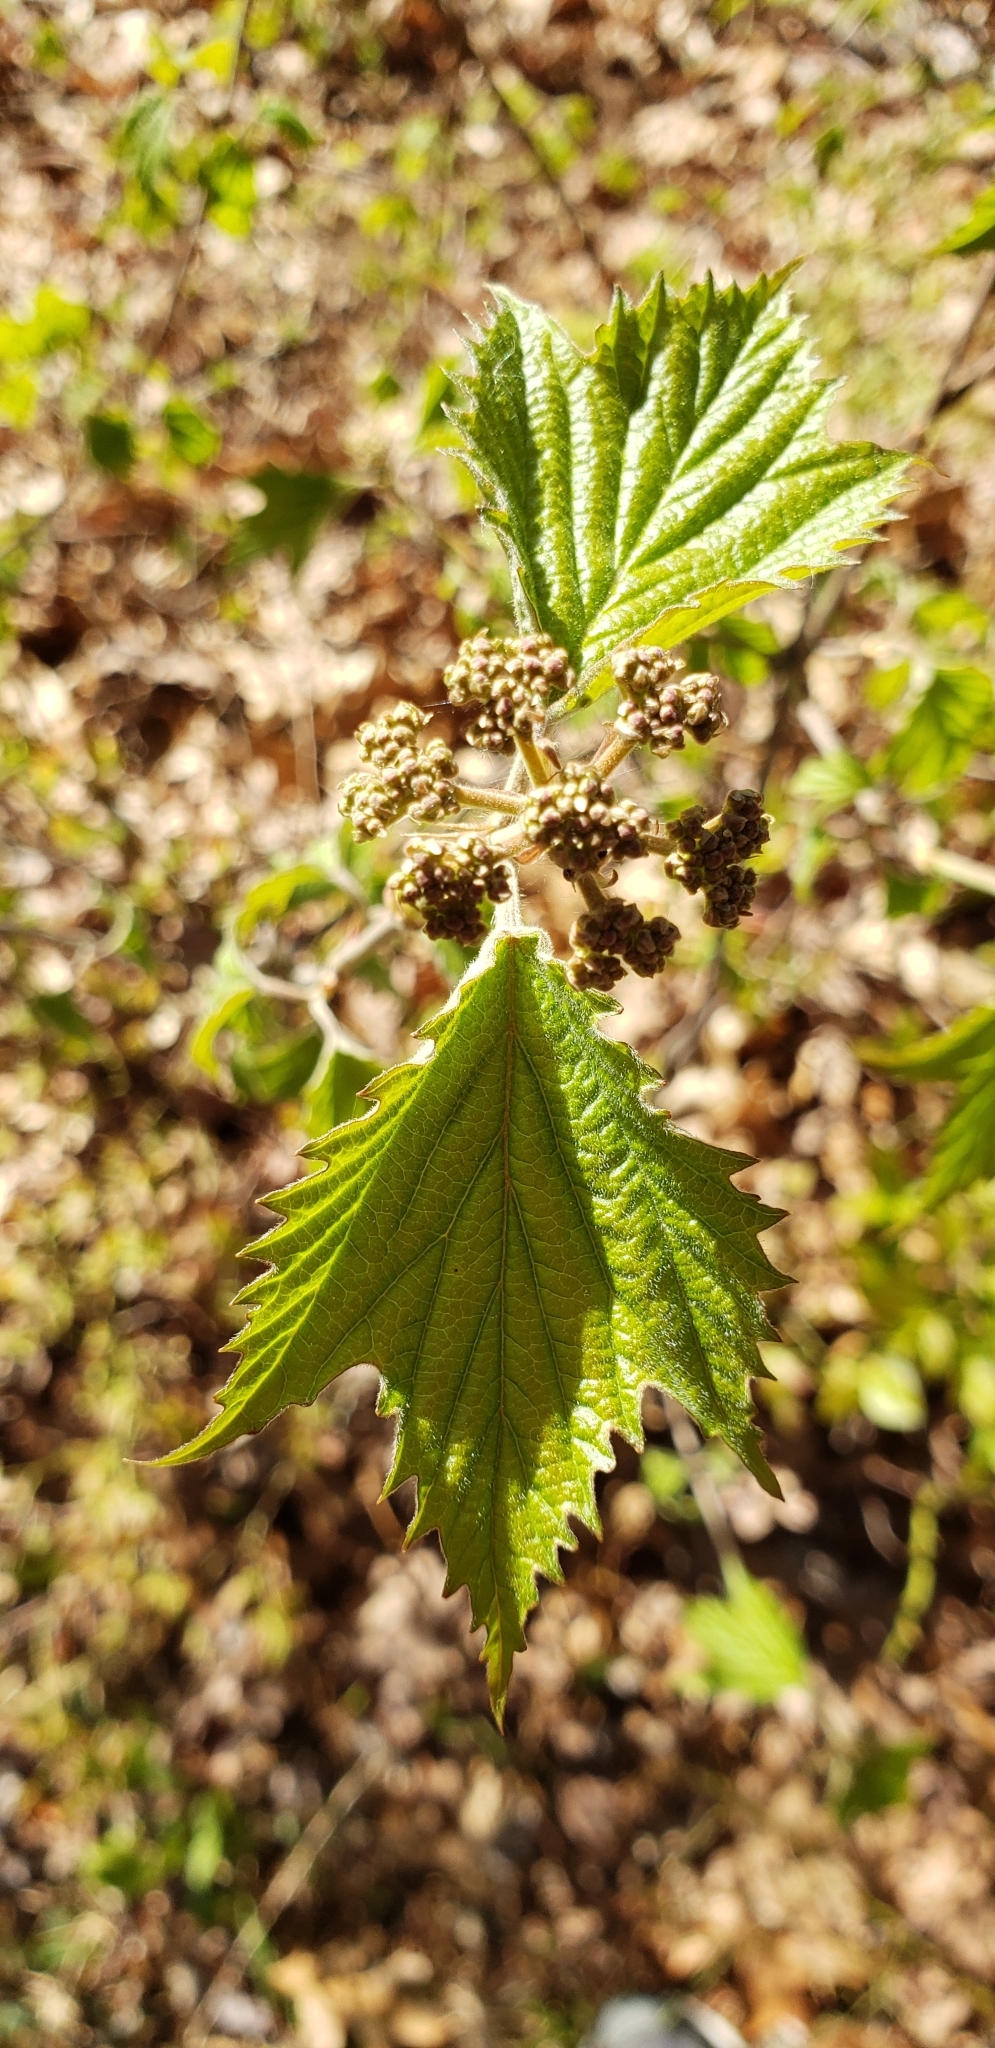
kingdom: Plantae
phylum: Tracheophyta
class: Magnoliopsida
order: Dipsacales
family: Viburnaceae
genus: Viburnum
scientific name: Viburnum acerifolium
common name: Dockmackie
